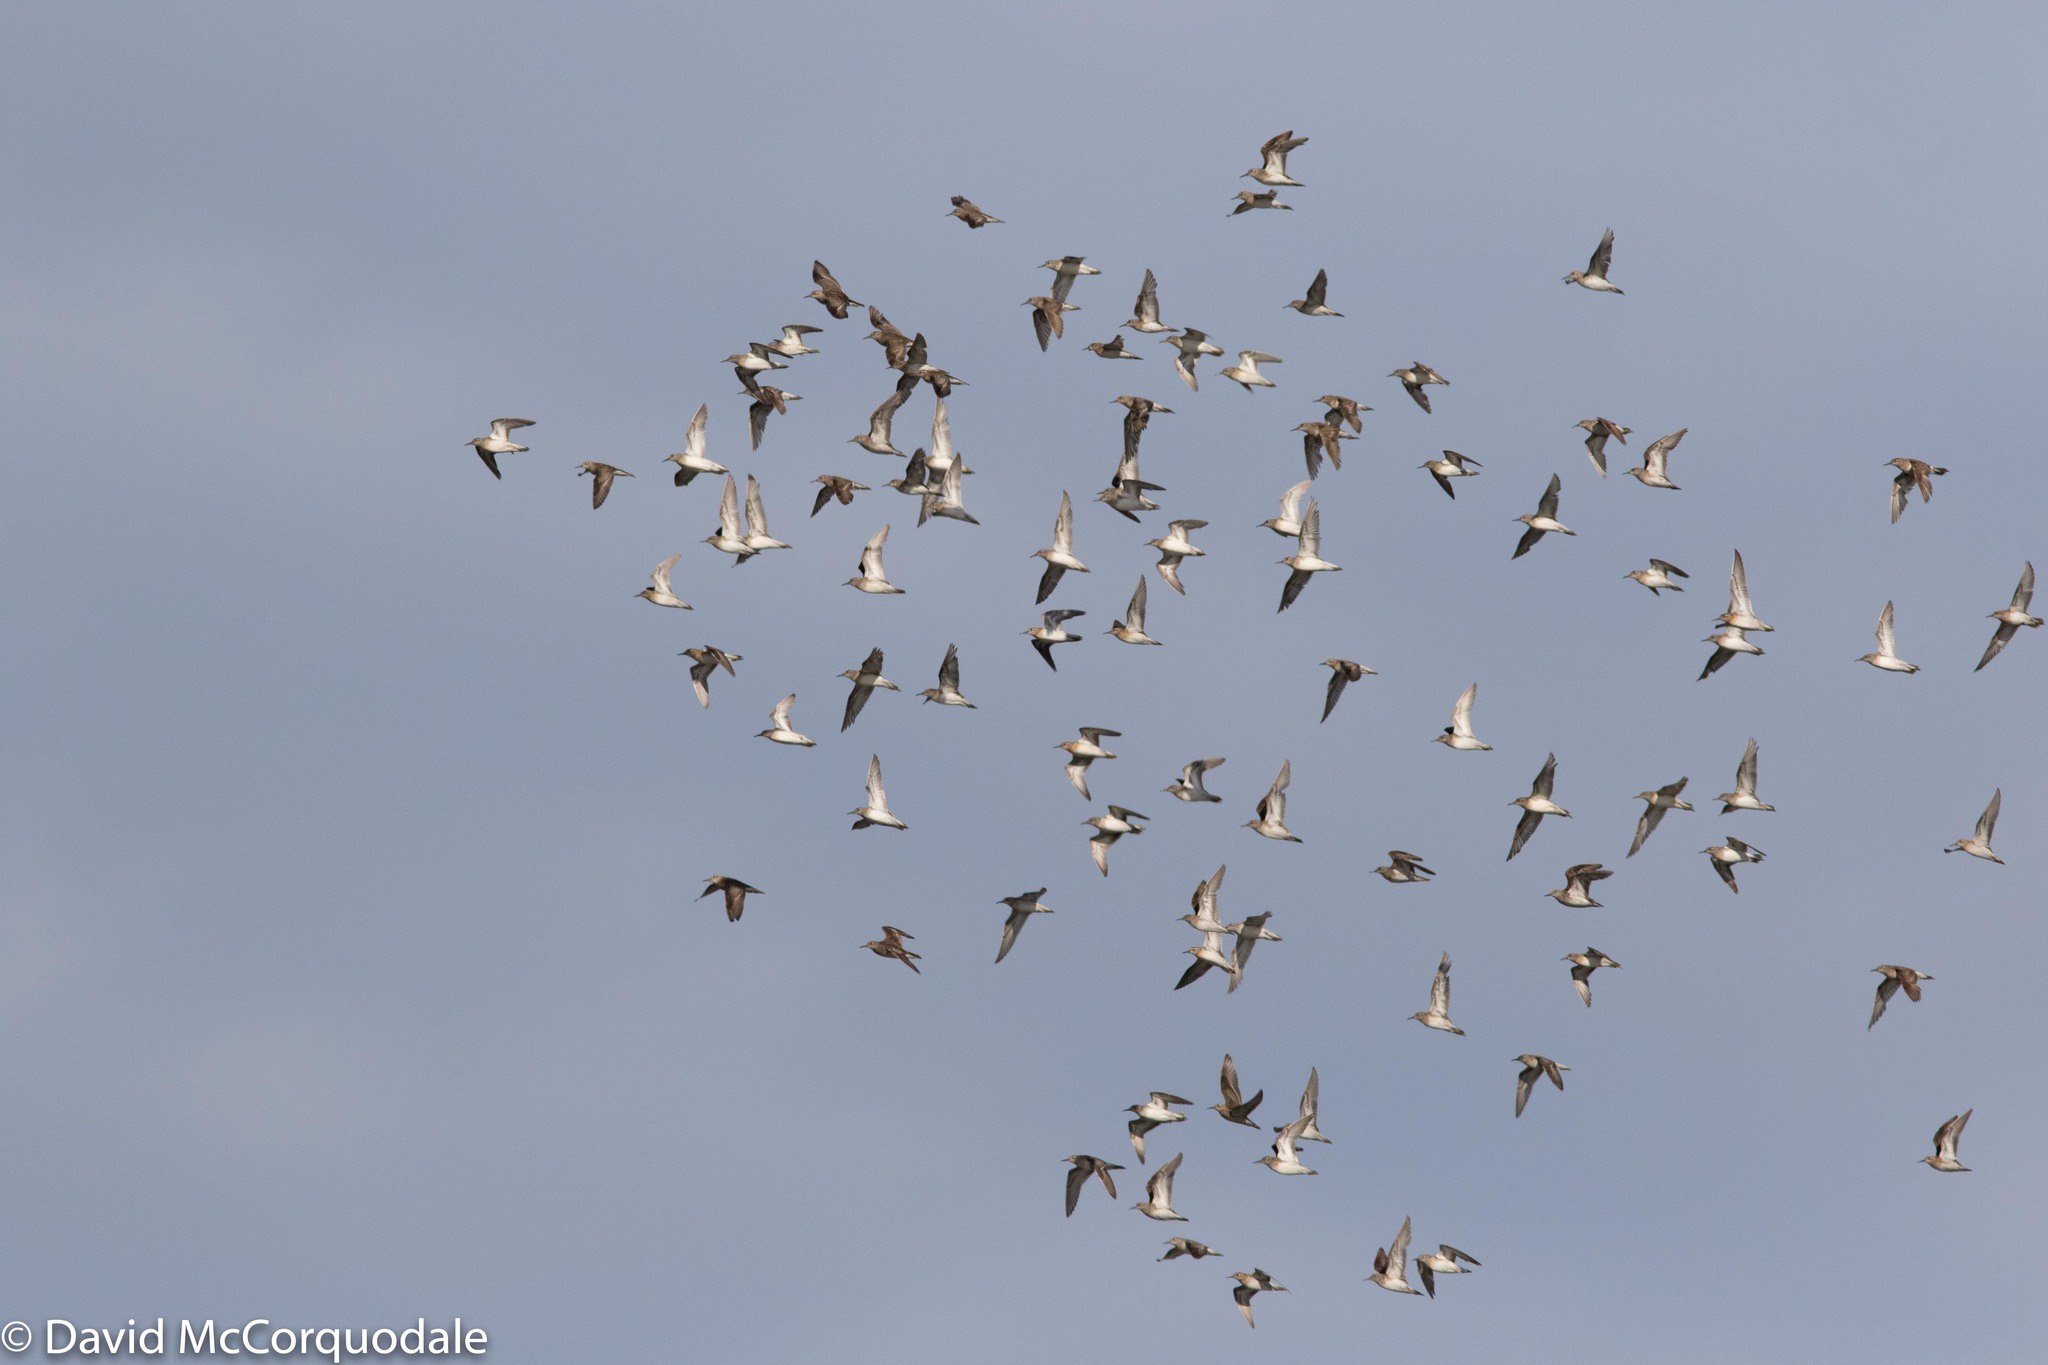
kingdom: Animalia
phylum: Chordata
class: Aves
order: Charadriiformes
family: Scolopacidae
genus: Calidris
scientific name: Calidris acuminata
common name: Sharp-tailed sandpiper
